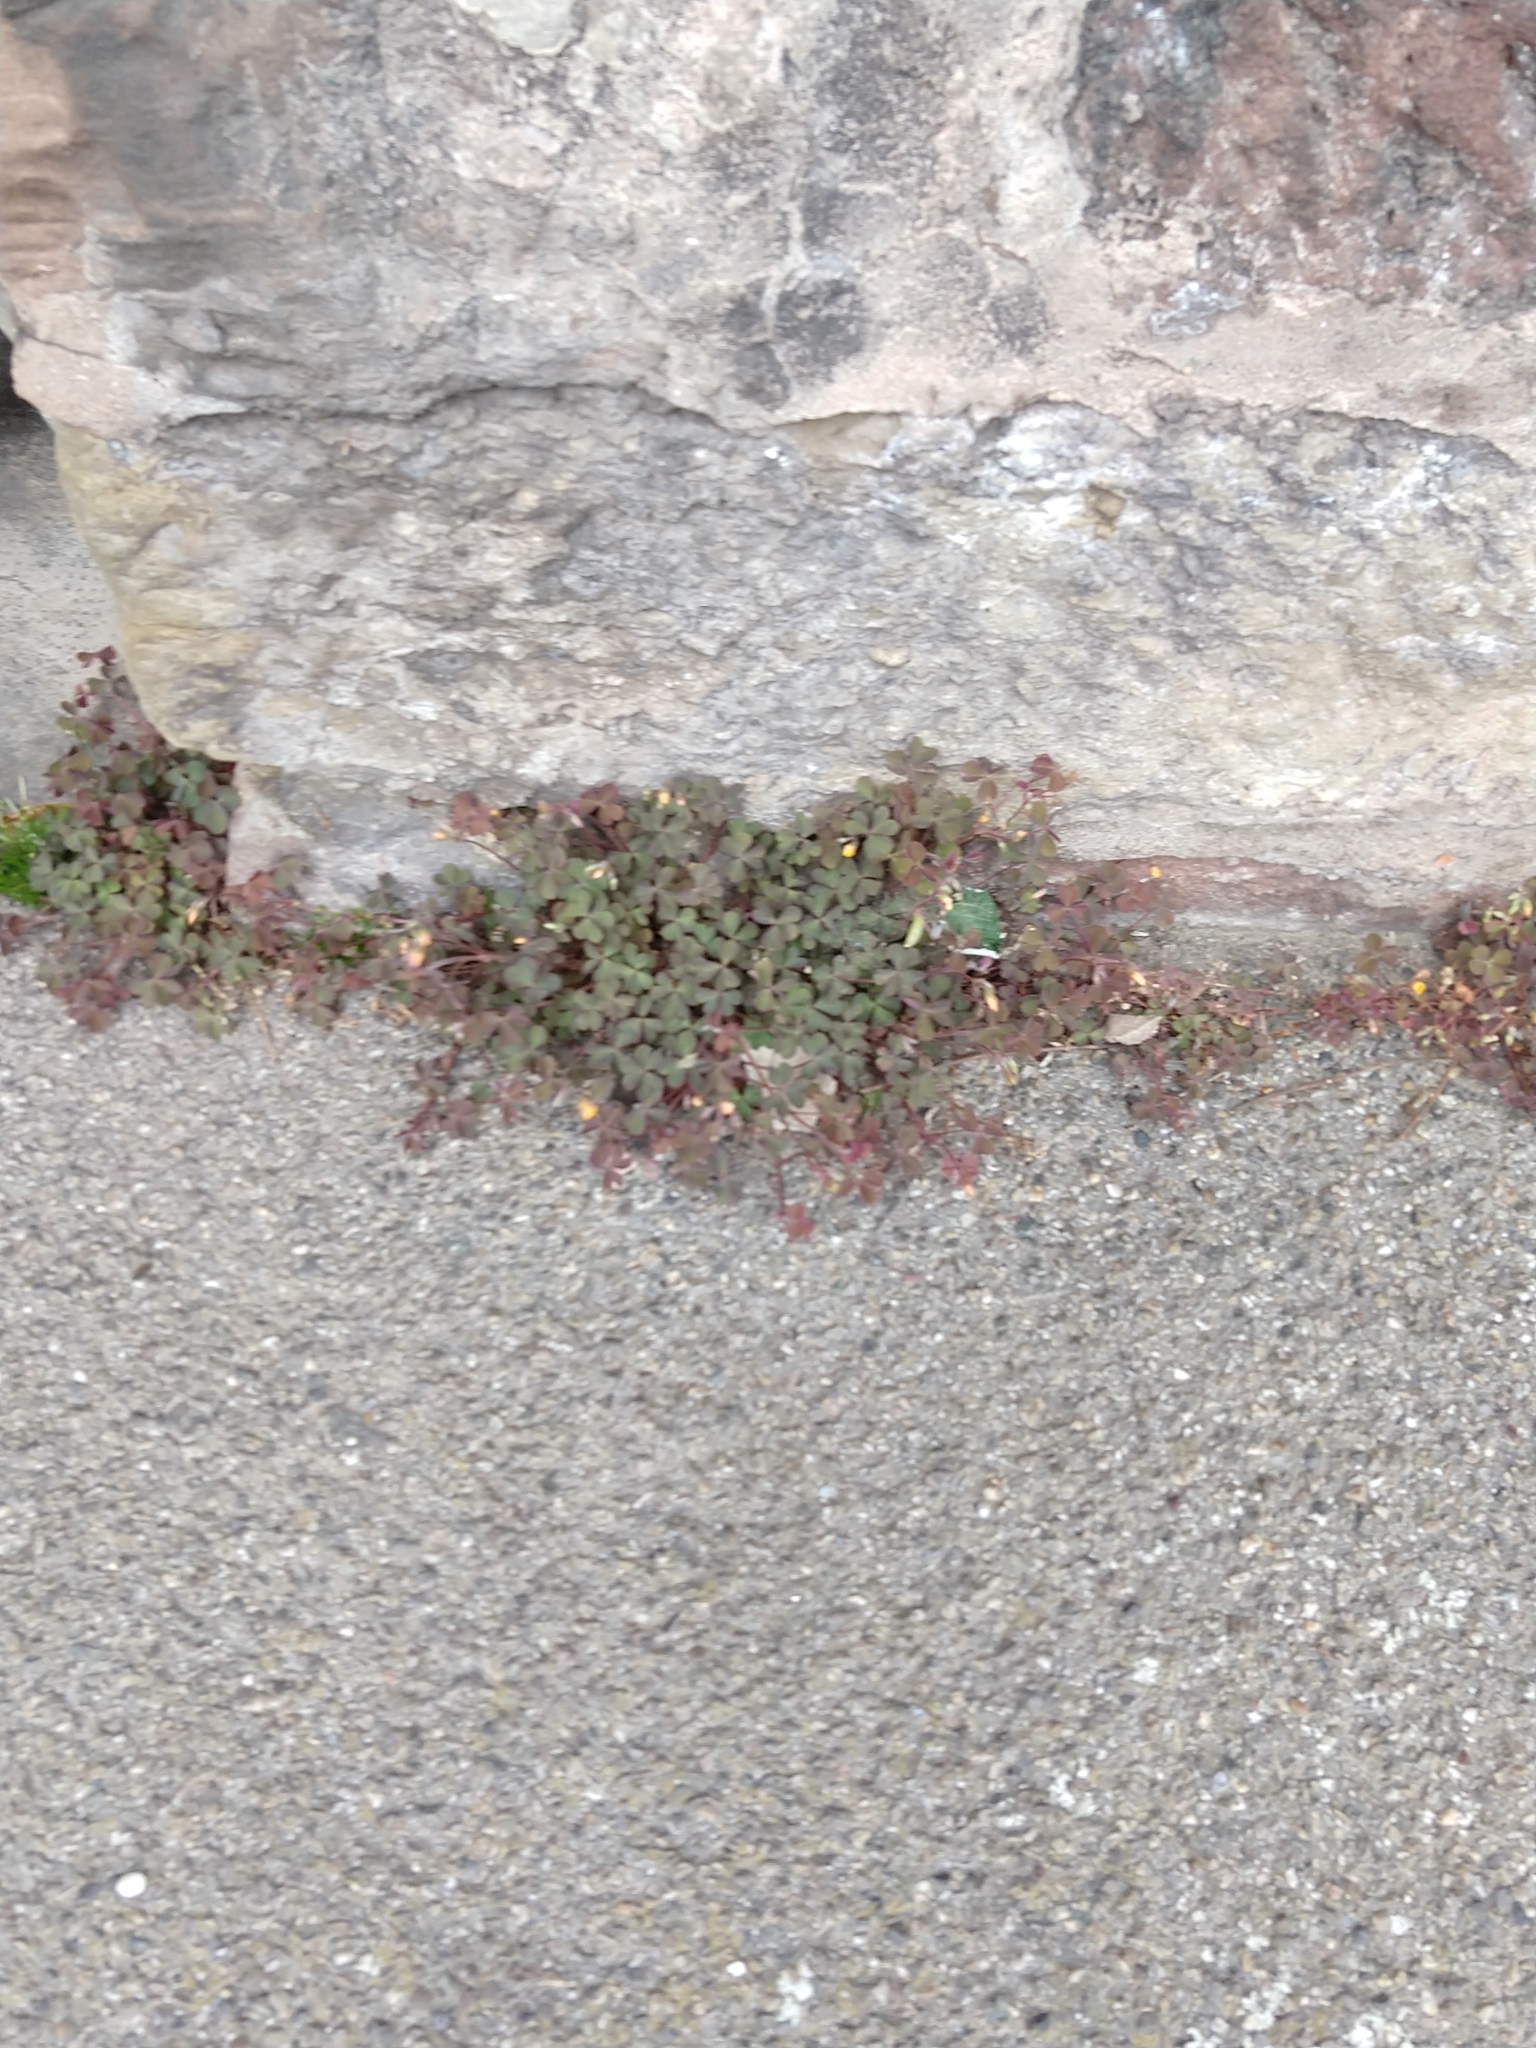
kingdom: Plantae
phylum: Tracheophyta
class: Magnoliopsida
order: Oxalidales
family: Oxalidaceae
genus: Oxalis
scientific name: Oxalis corniculata
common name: Procumbent yellow-sorrel
